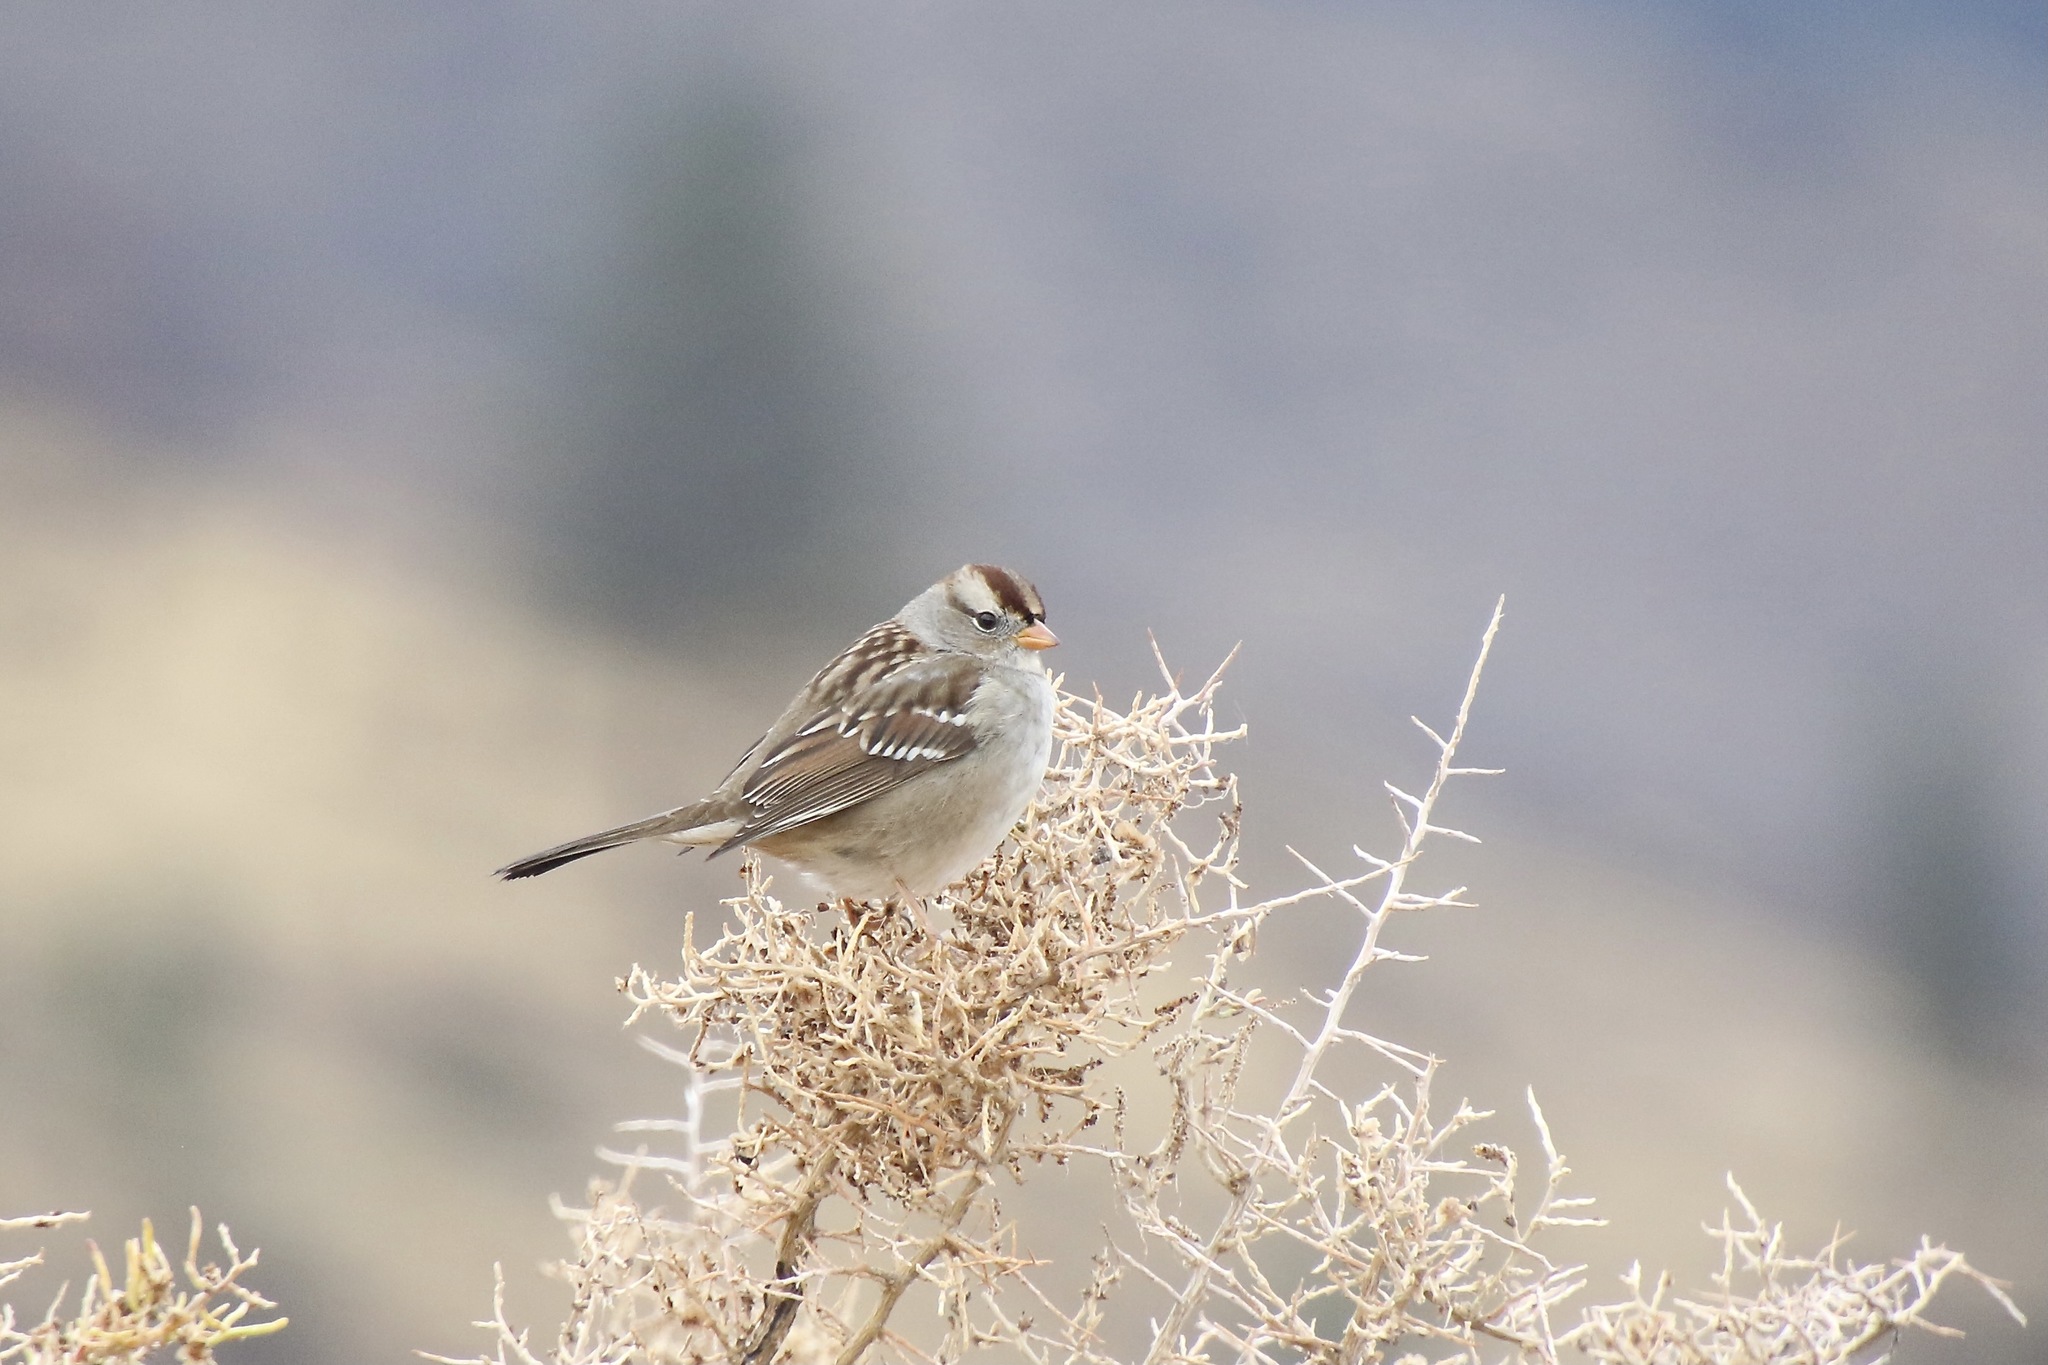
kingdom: Animalia
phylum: Chordata
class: Aves
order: Passeriformes
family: Passerellidae
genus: Zonotrichia
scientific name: Zonotrichia leucophrys
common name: White-crowned sparrow
